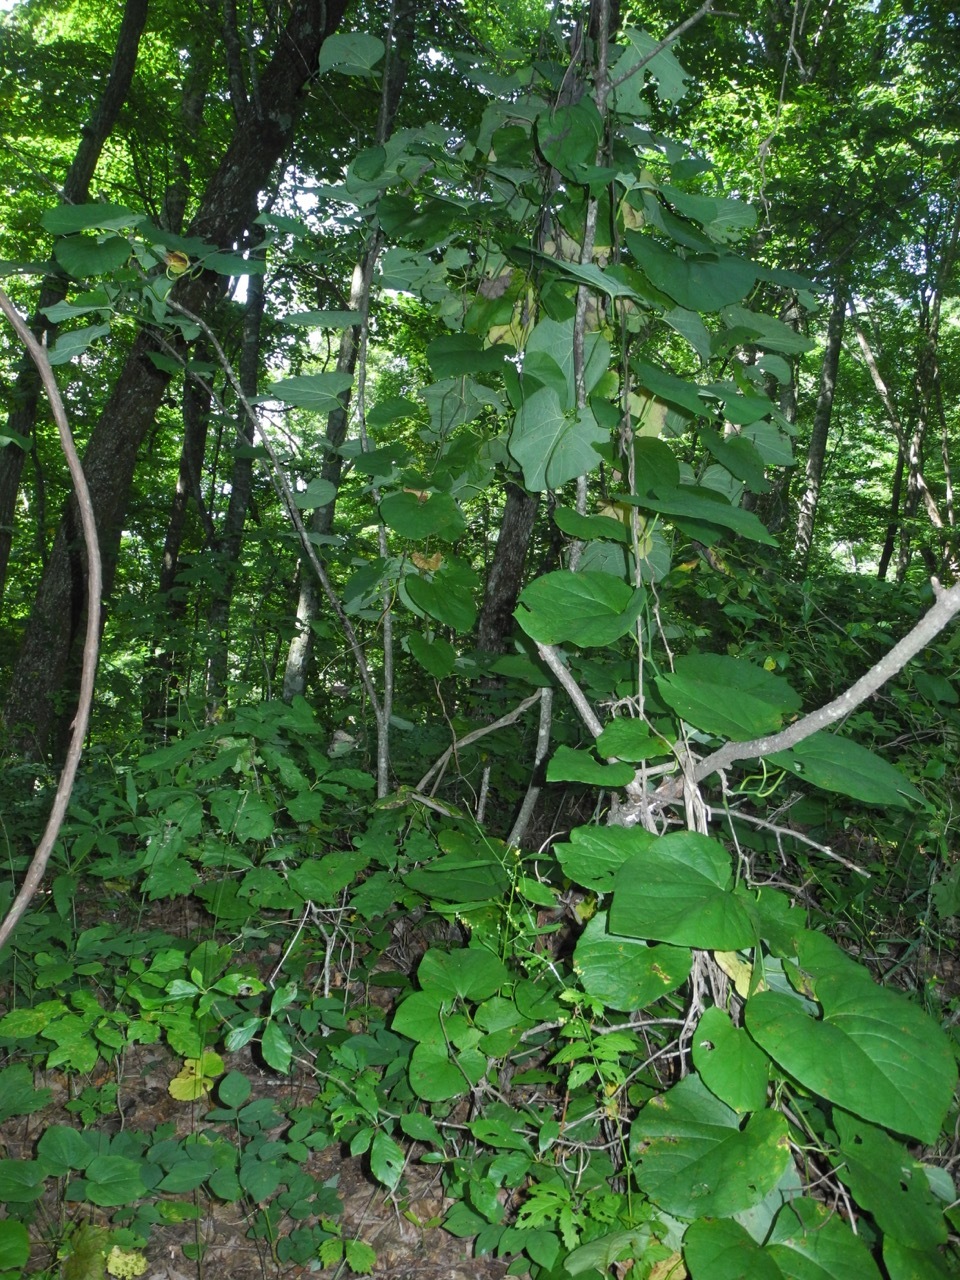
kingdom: Plantae
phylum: Tracheophyta
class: Magnoliopsida
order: Piperales
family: Aristolochiaceae
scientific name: Aristolochiaceae
